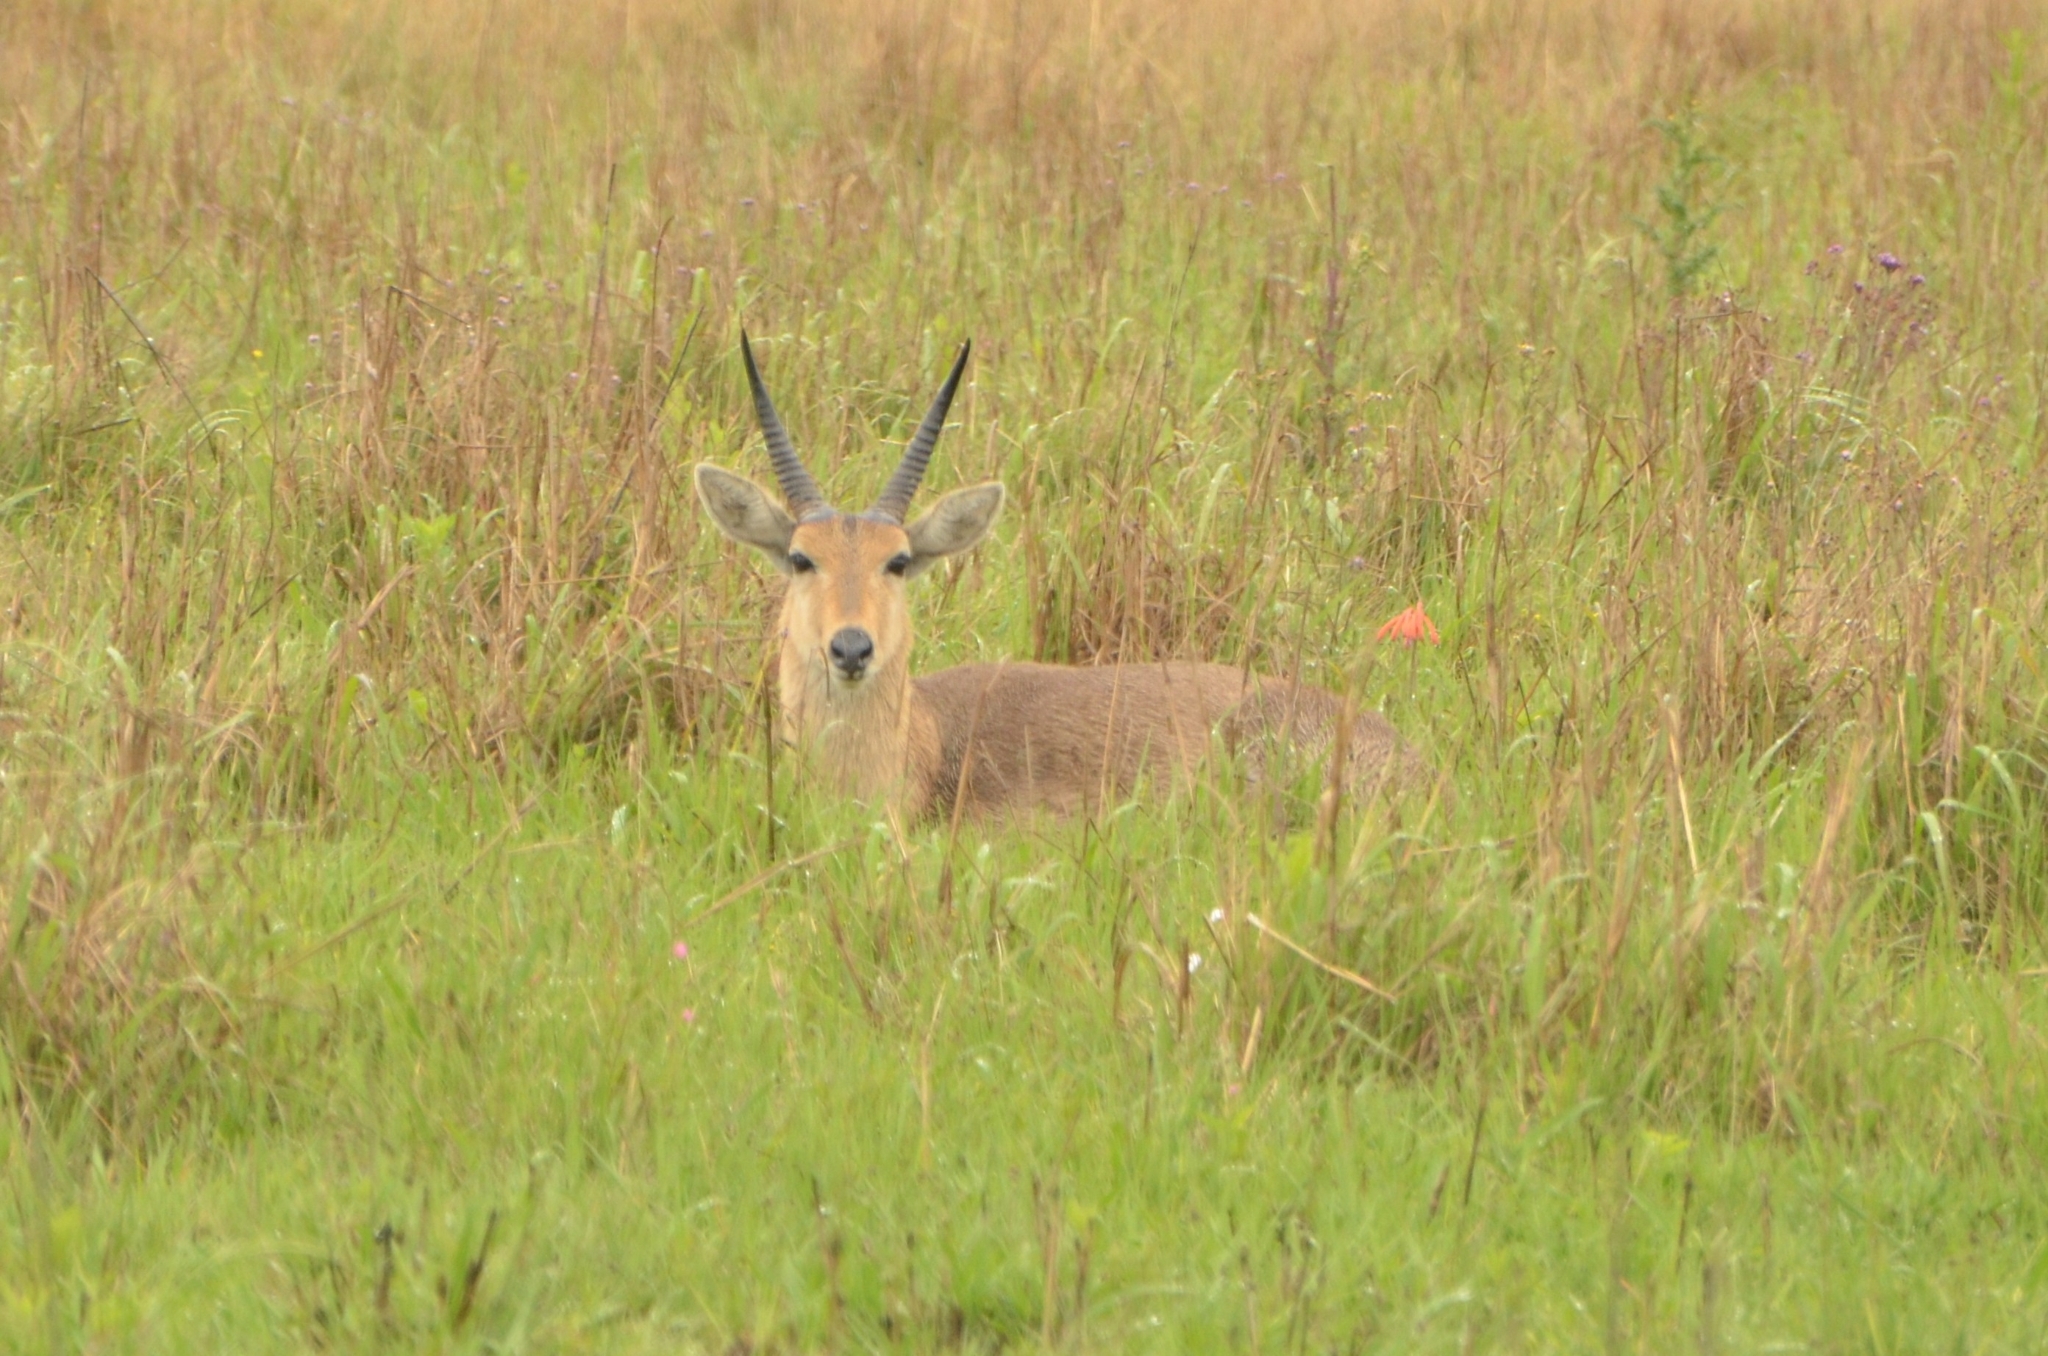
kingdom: Animalia
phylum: Chordata
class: Mammalia
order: Artiodactyla
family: Bovidae
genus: Redunca
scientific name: Redunca arundinum
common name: Southern reedbuck
